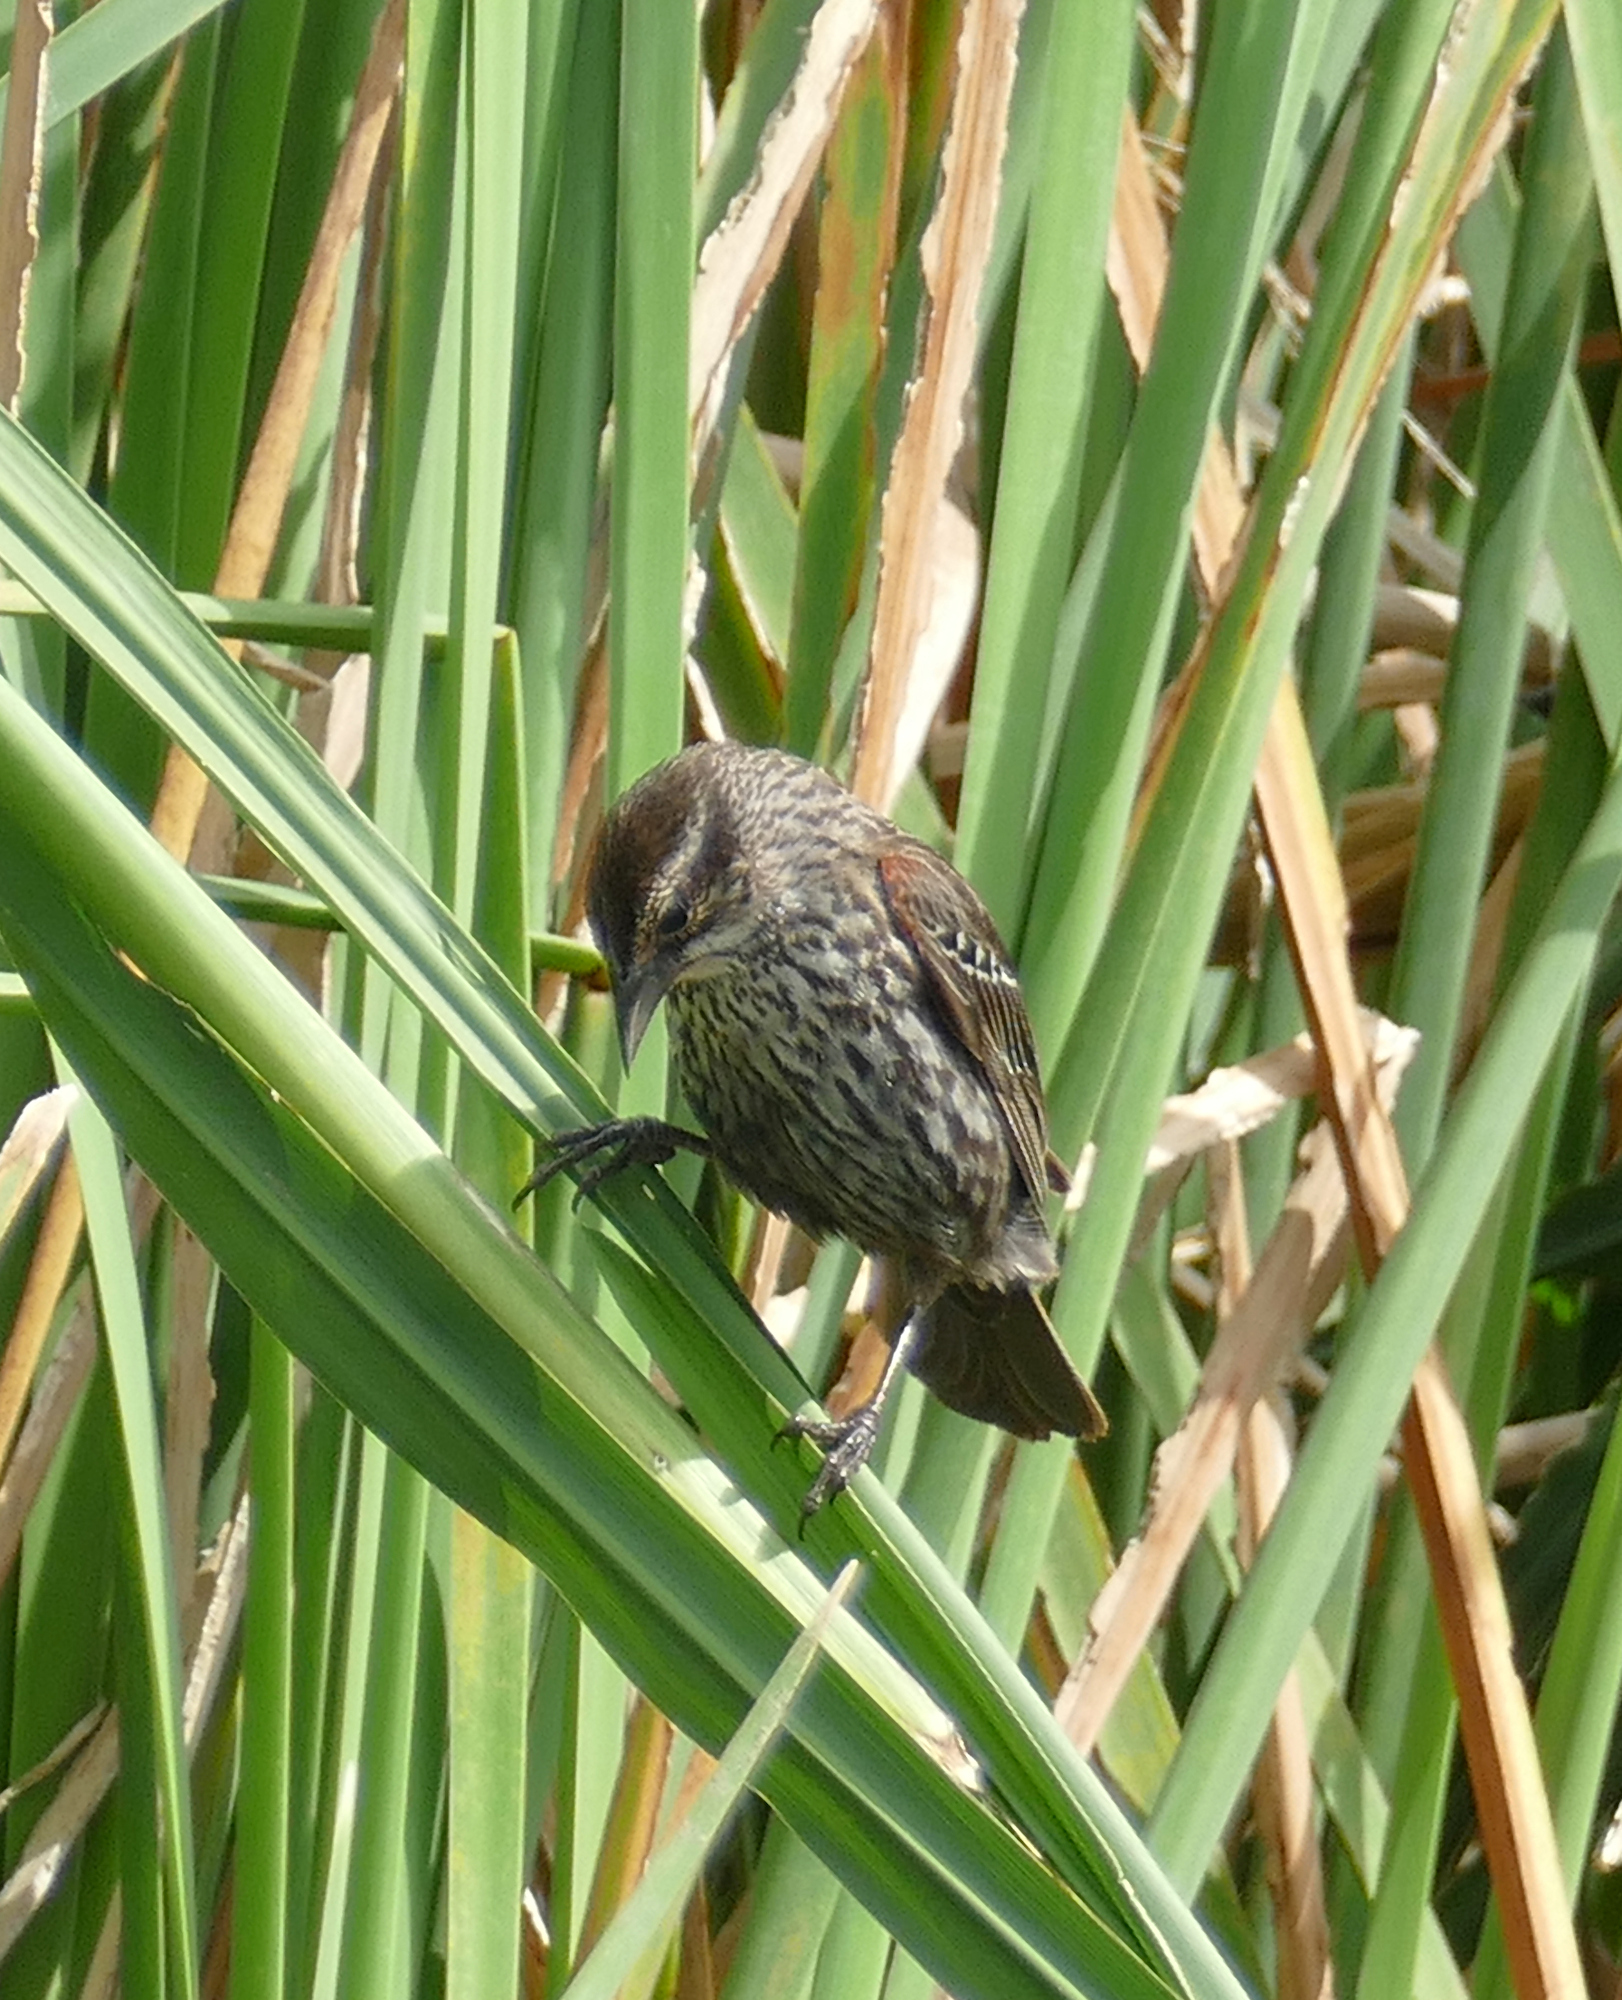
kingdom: Animalia
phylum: Chordata
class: Aves
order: Passeriformes
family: Icteridae
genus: Agelaius
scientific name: Agelaius phoeniceus
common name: Red-winged blackbird
